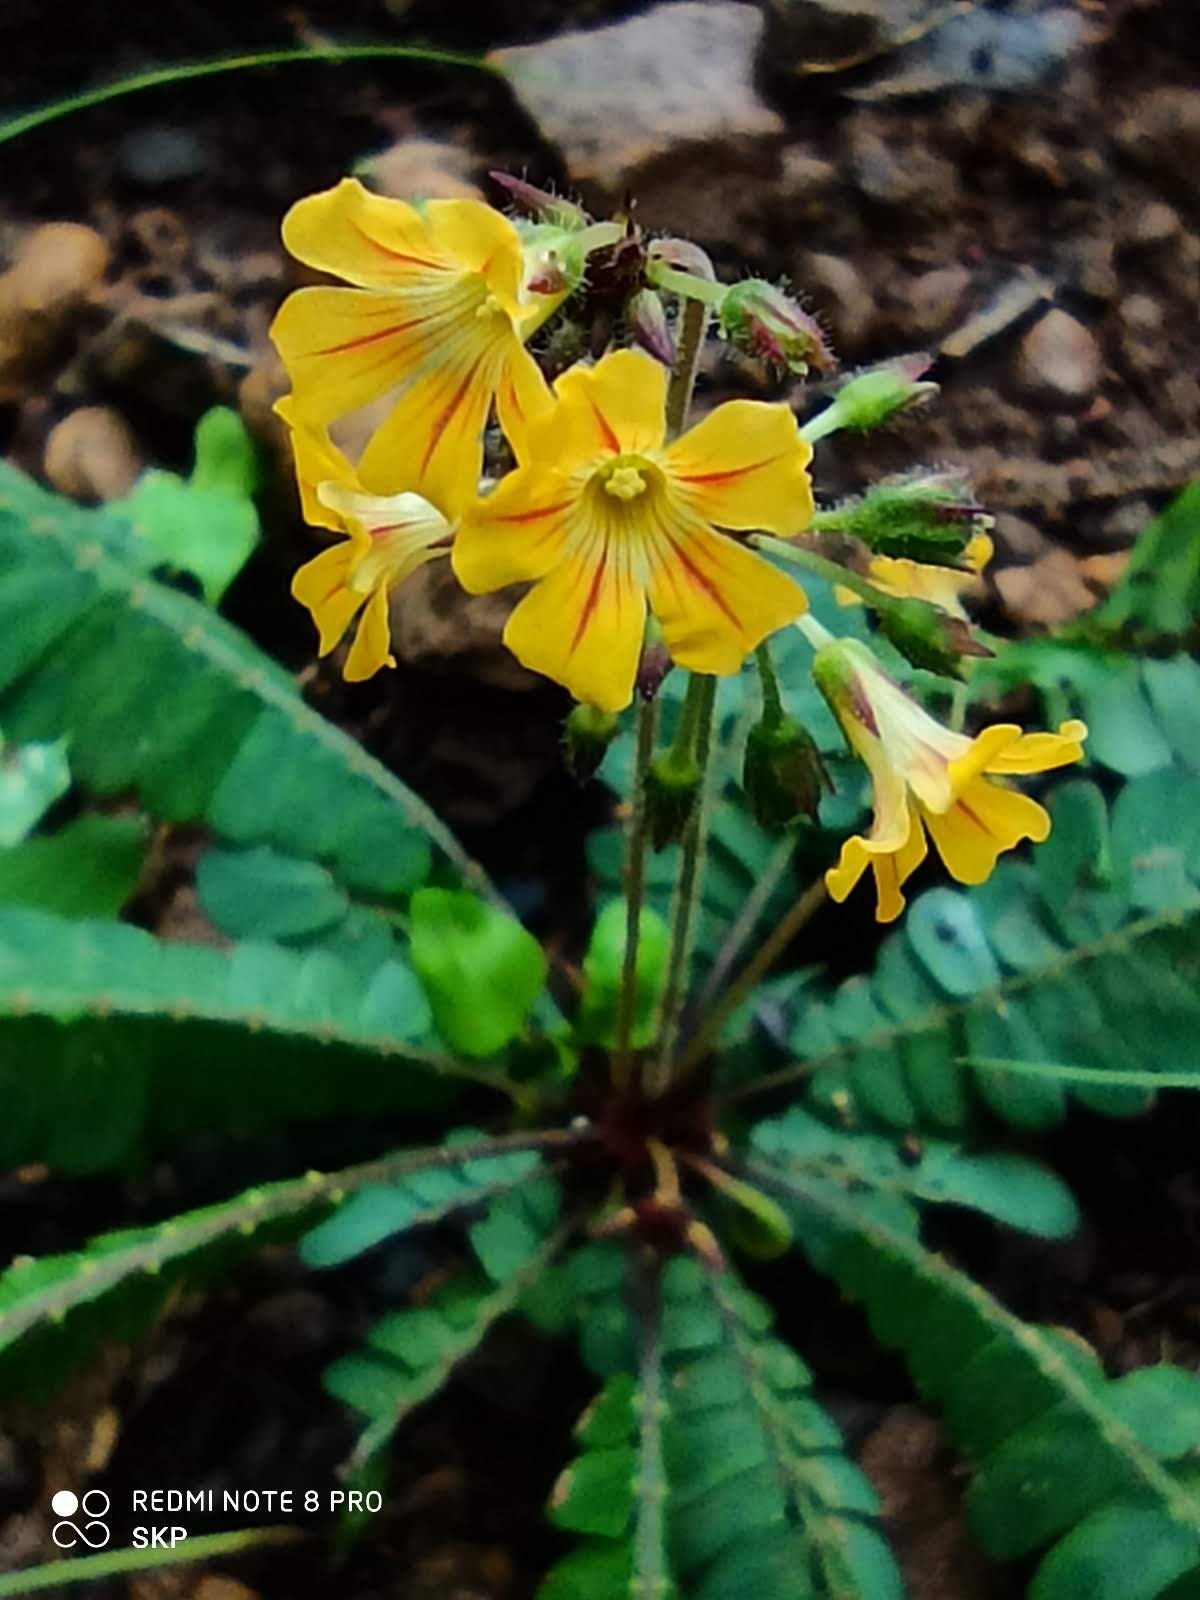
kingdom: Plantae
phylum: Tracheophyta
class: Magnoliopsida
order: Oxalidales
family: Oxalidaceae
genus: Biophytum
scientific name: Biophytum sensitivum
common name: Lifeplant
